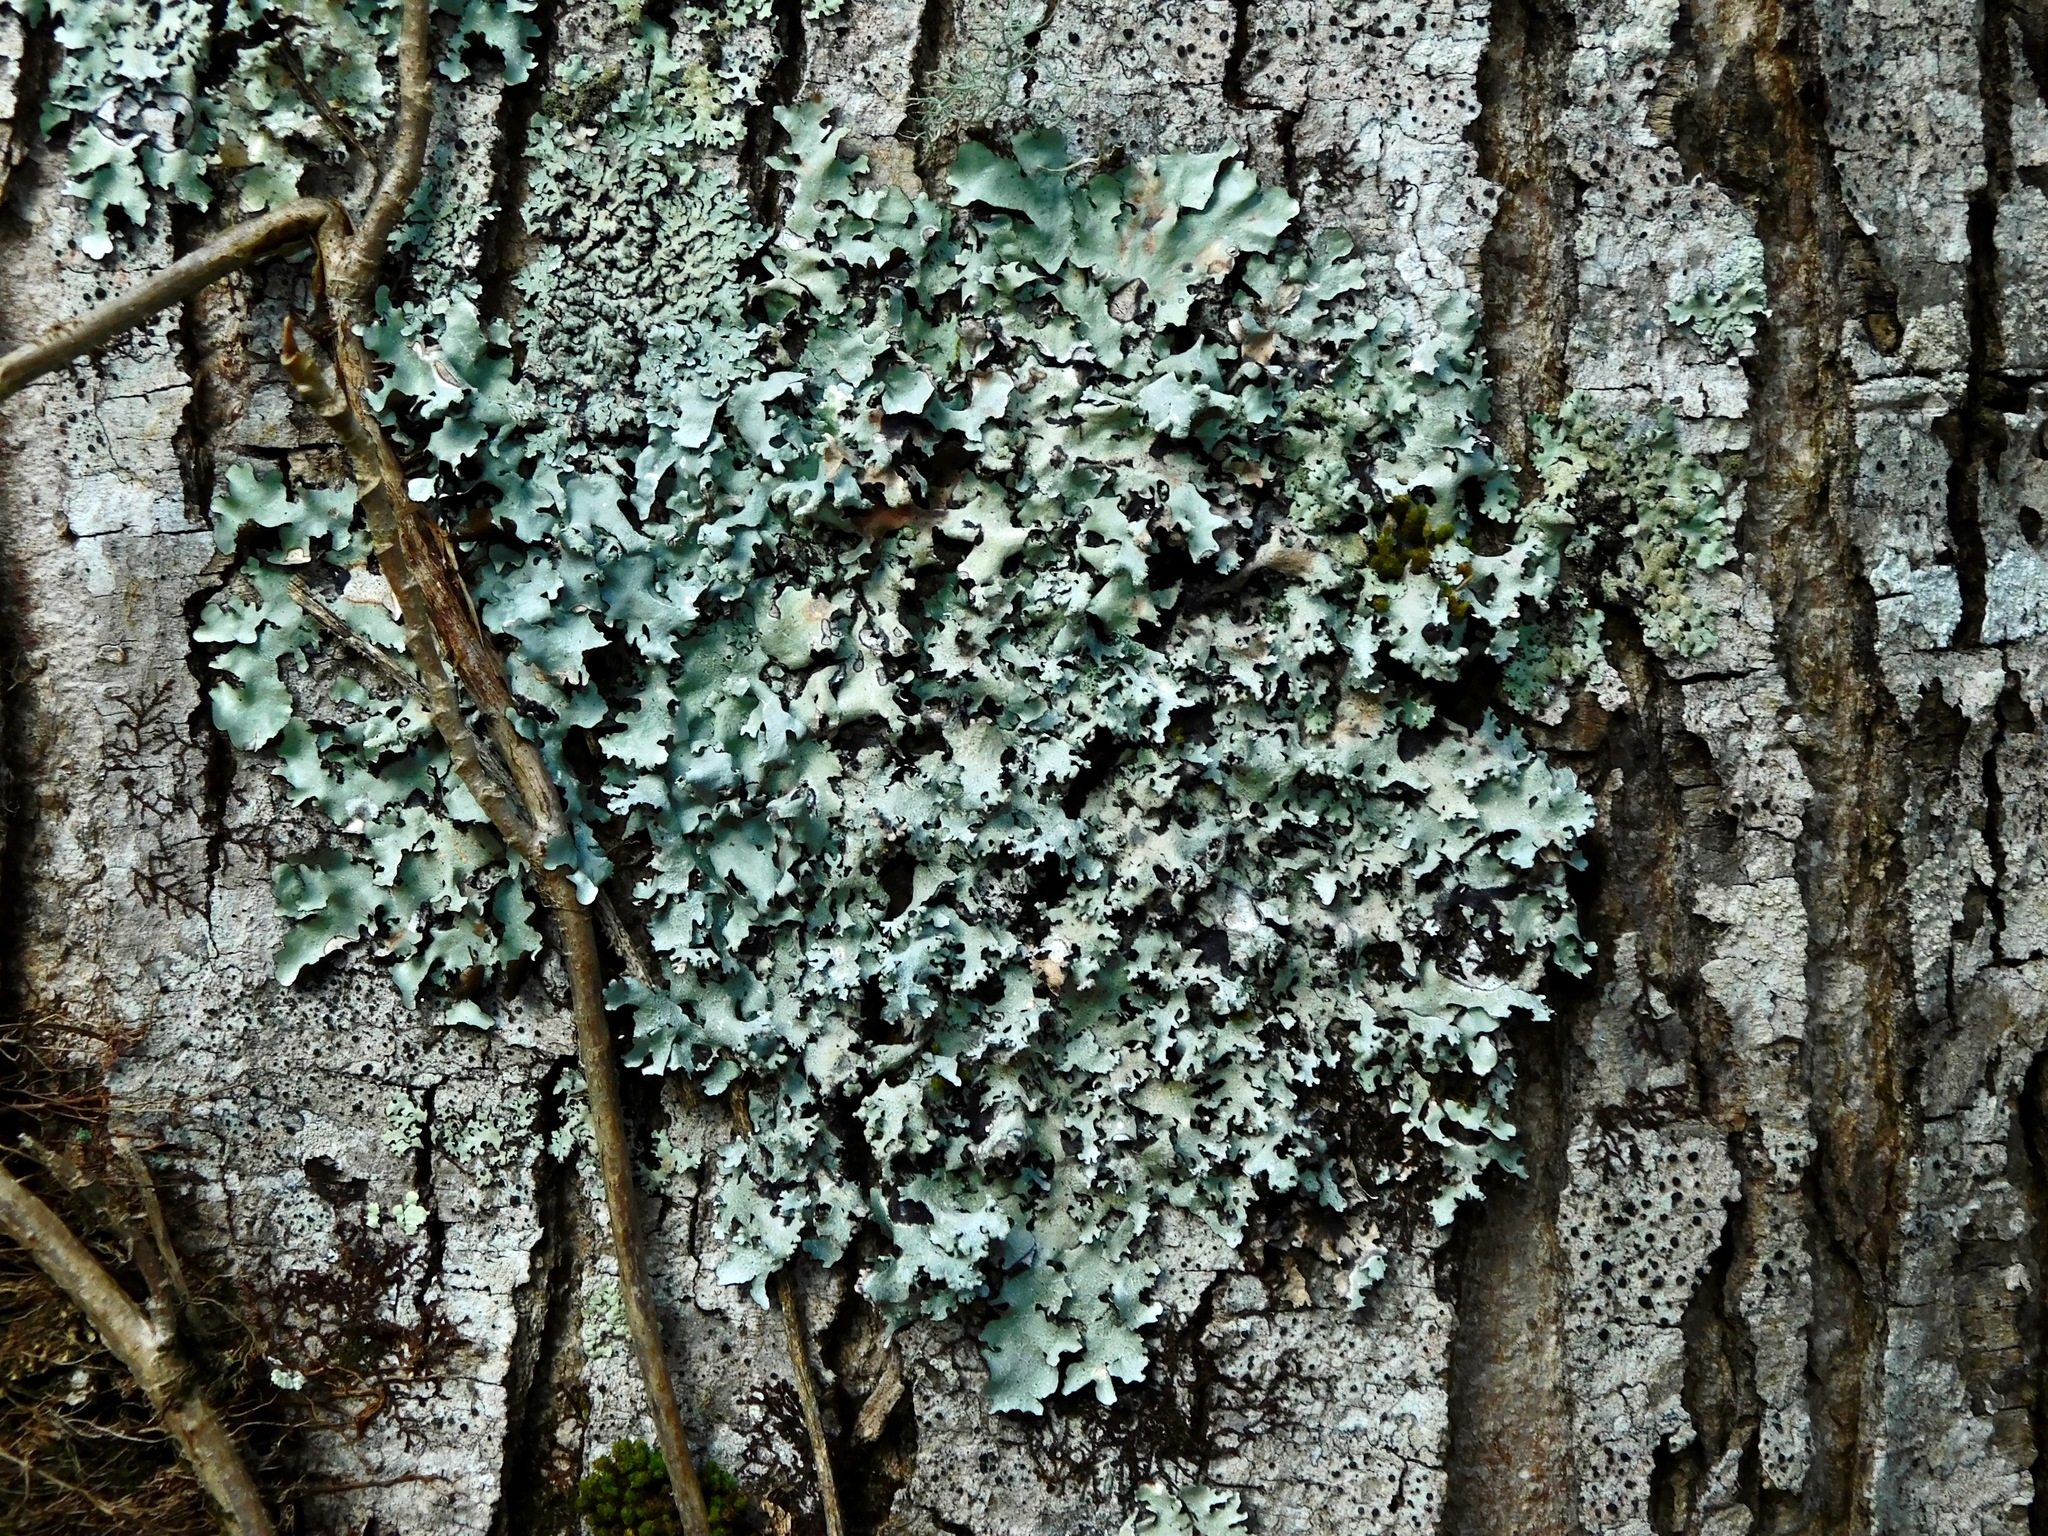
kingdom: Fungi
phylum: Ascomycota
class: Lecanoromycetes
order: Lecanorales
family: Parmeliaceae
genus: Parmotrema
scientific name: Parmotrema reticulatum
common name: Black sheet lichen
